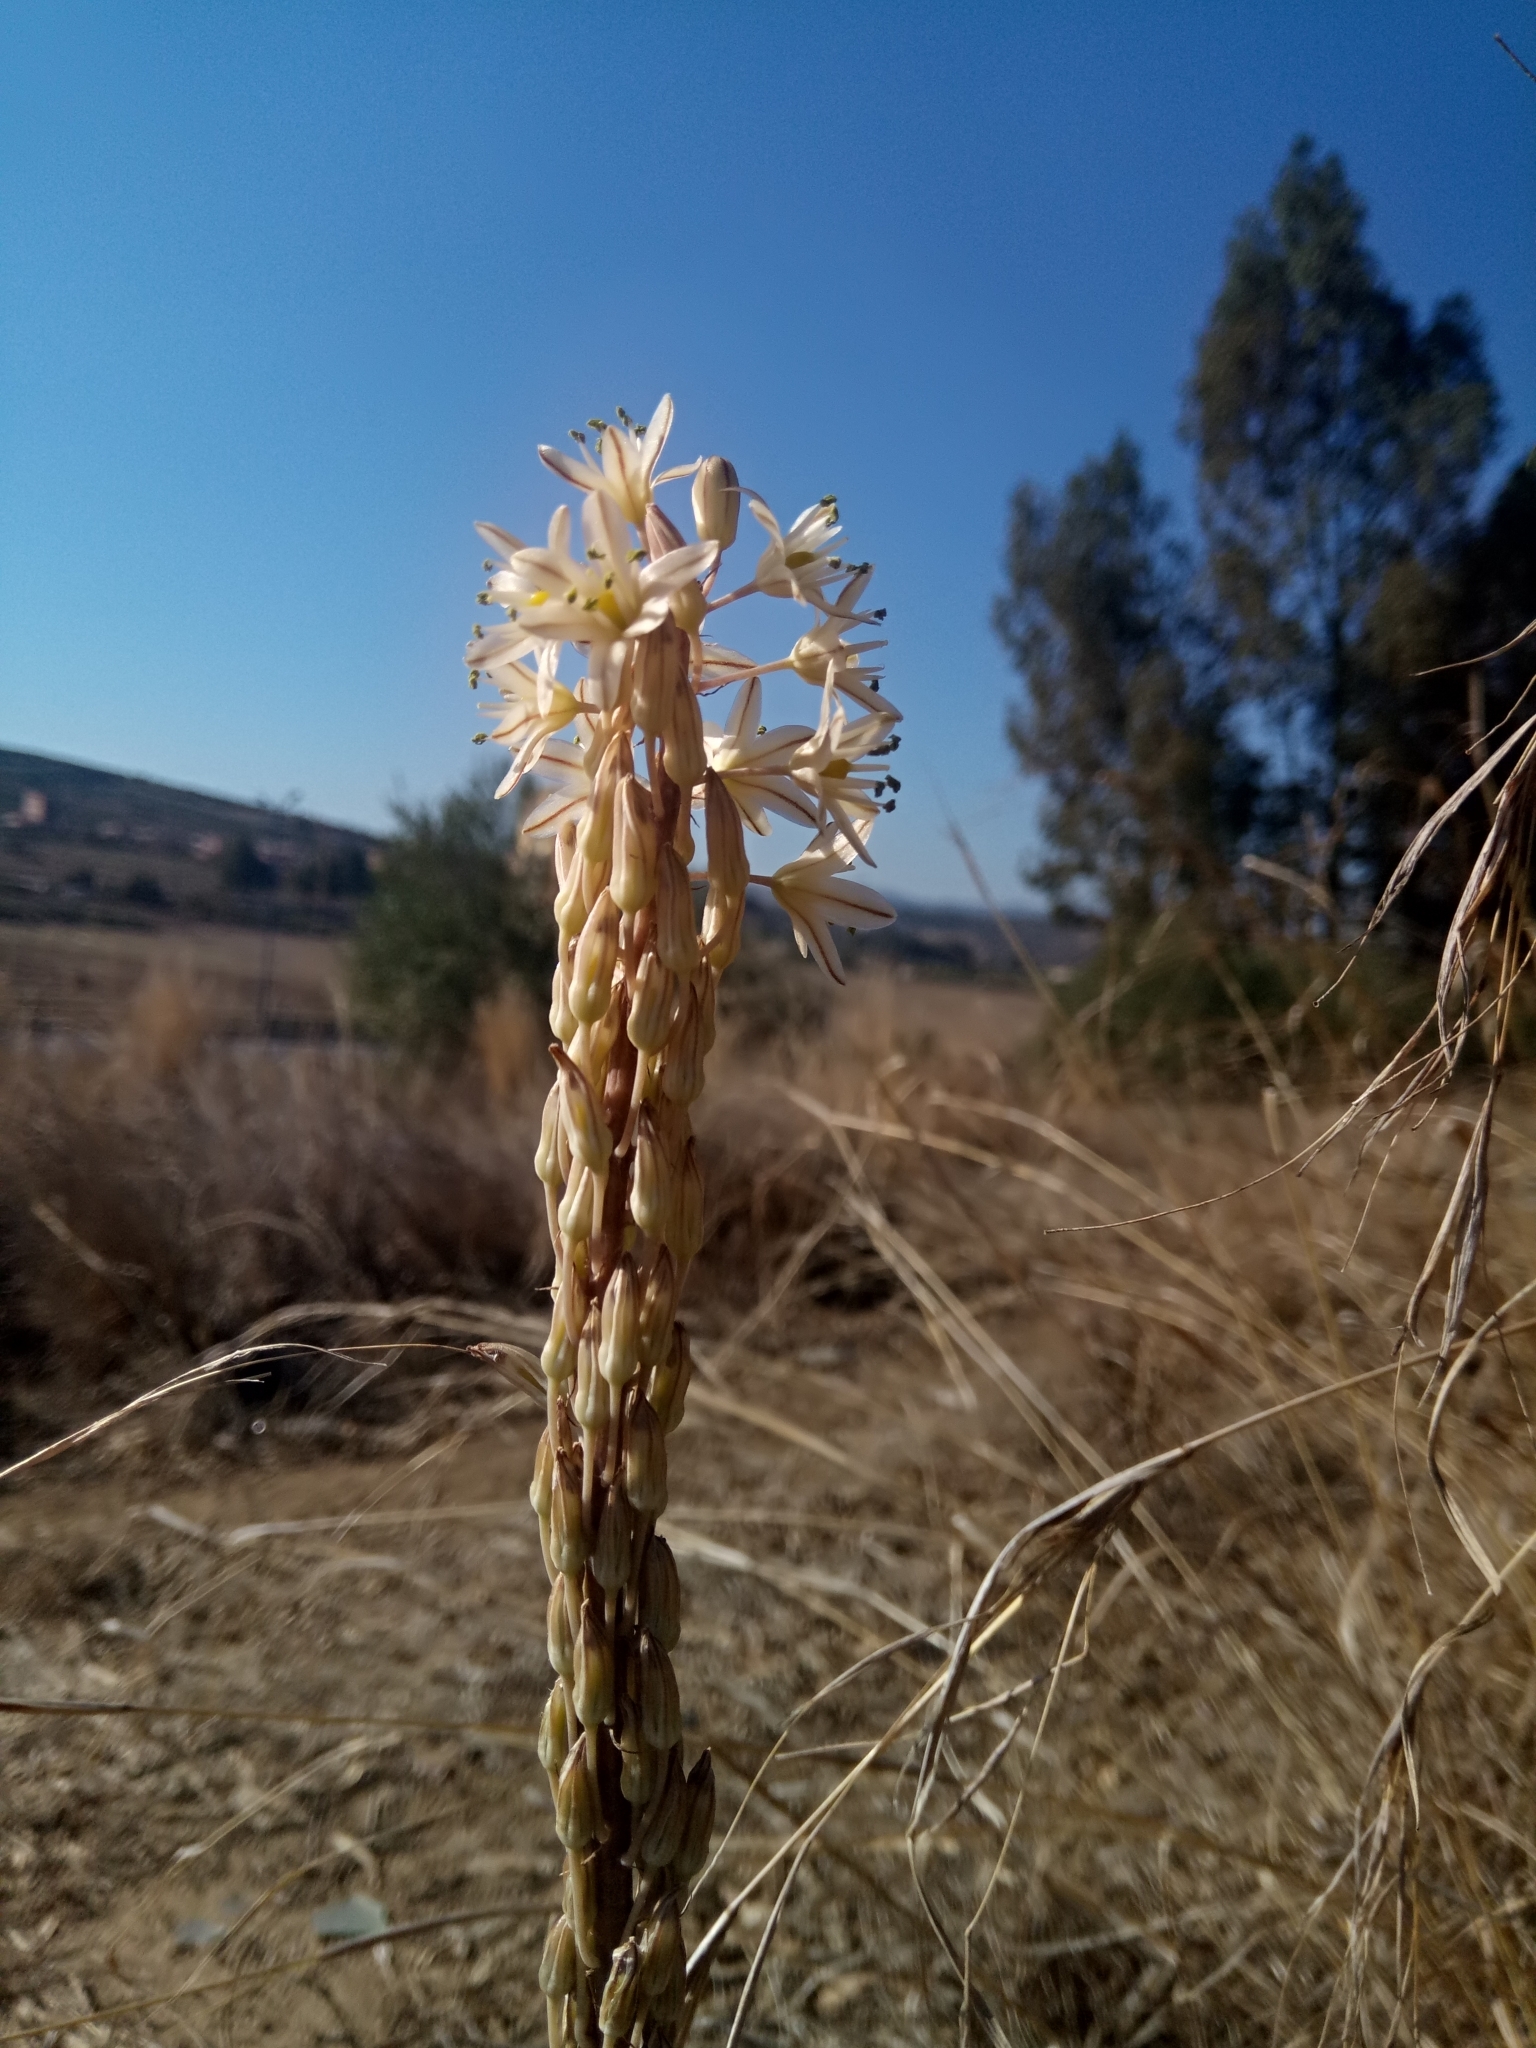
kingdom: Plantae
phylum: Tracheophyta
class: Liliopsida
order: Asparagales
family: Asparagaceae
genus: Drimia
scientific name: Drimia anthericoides
